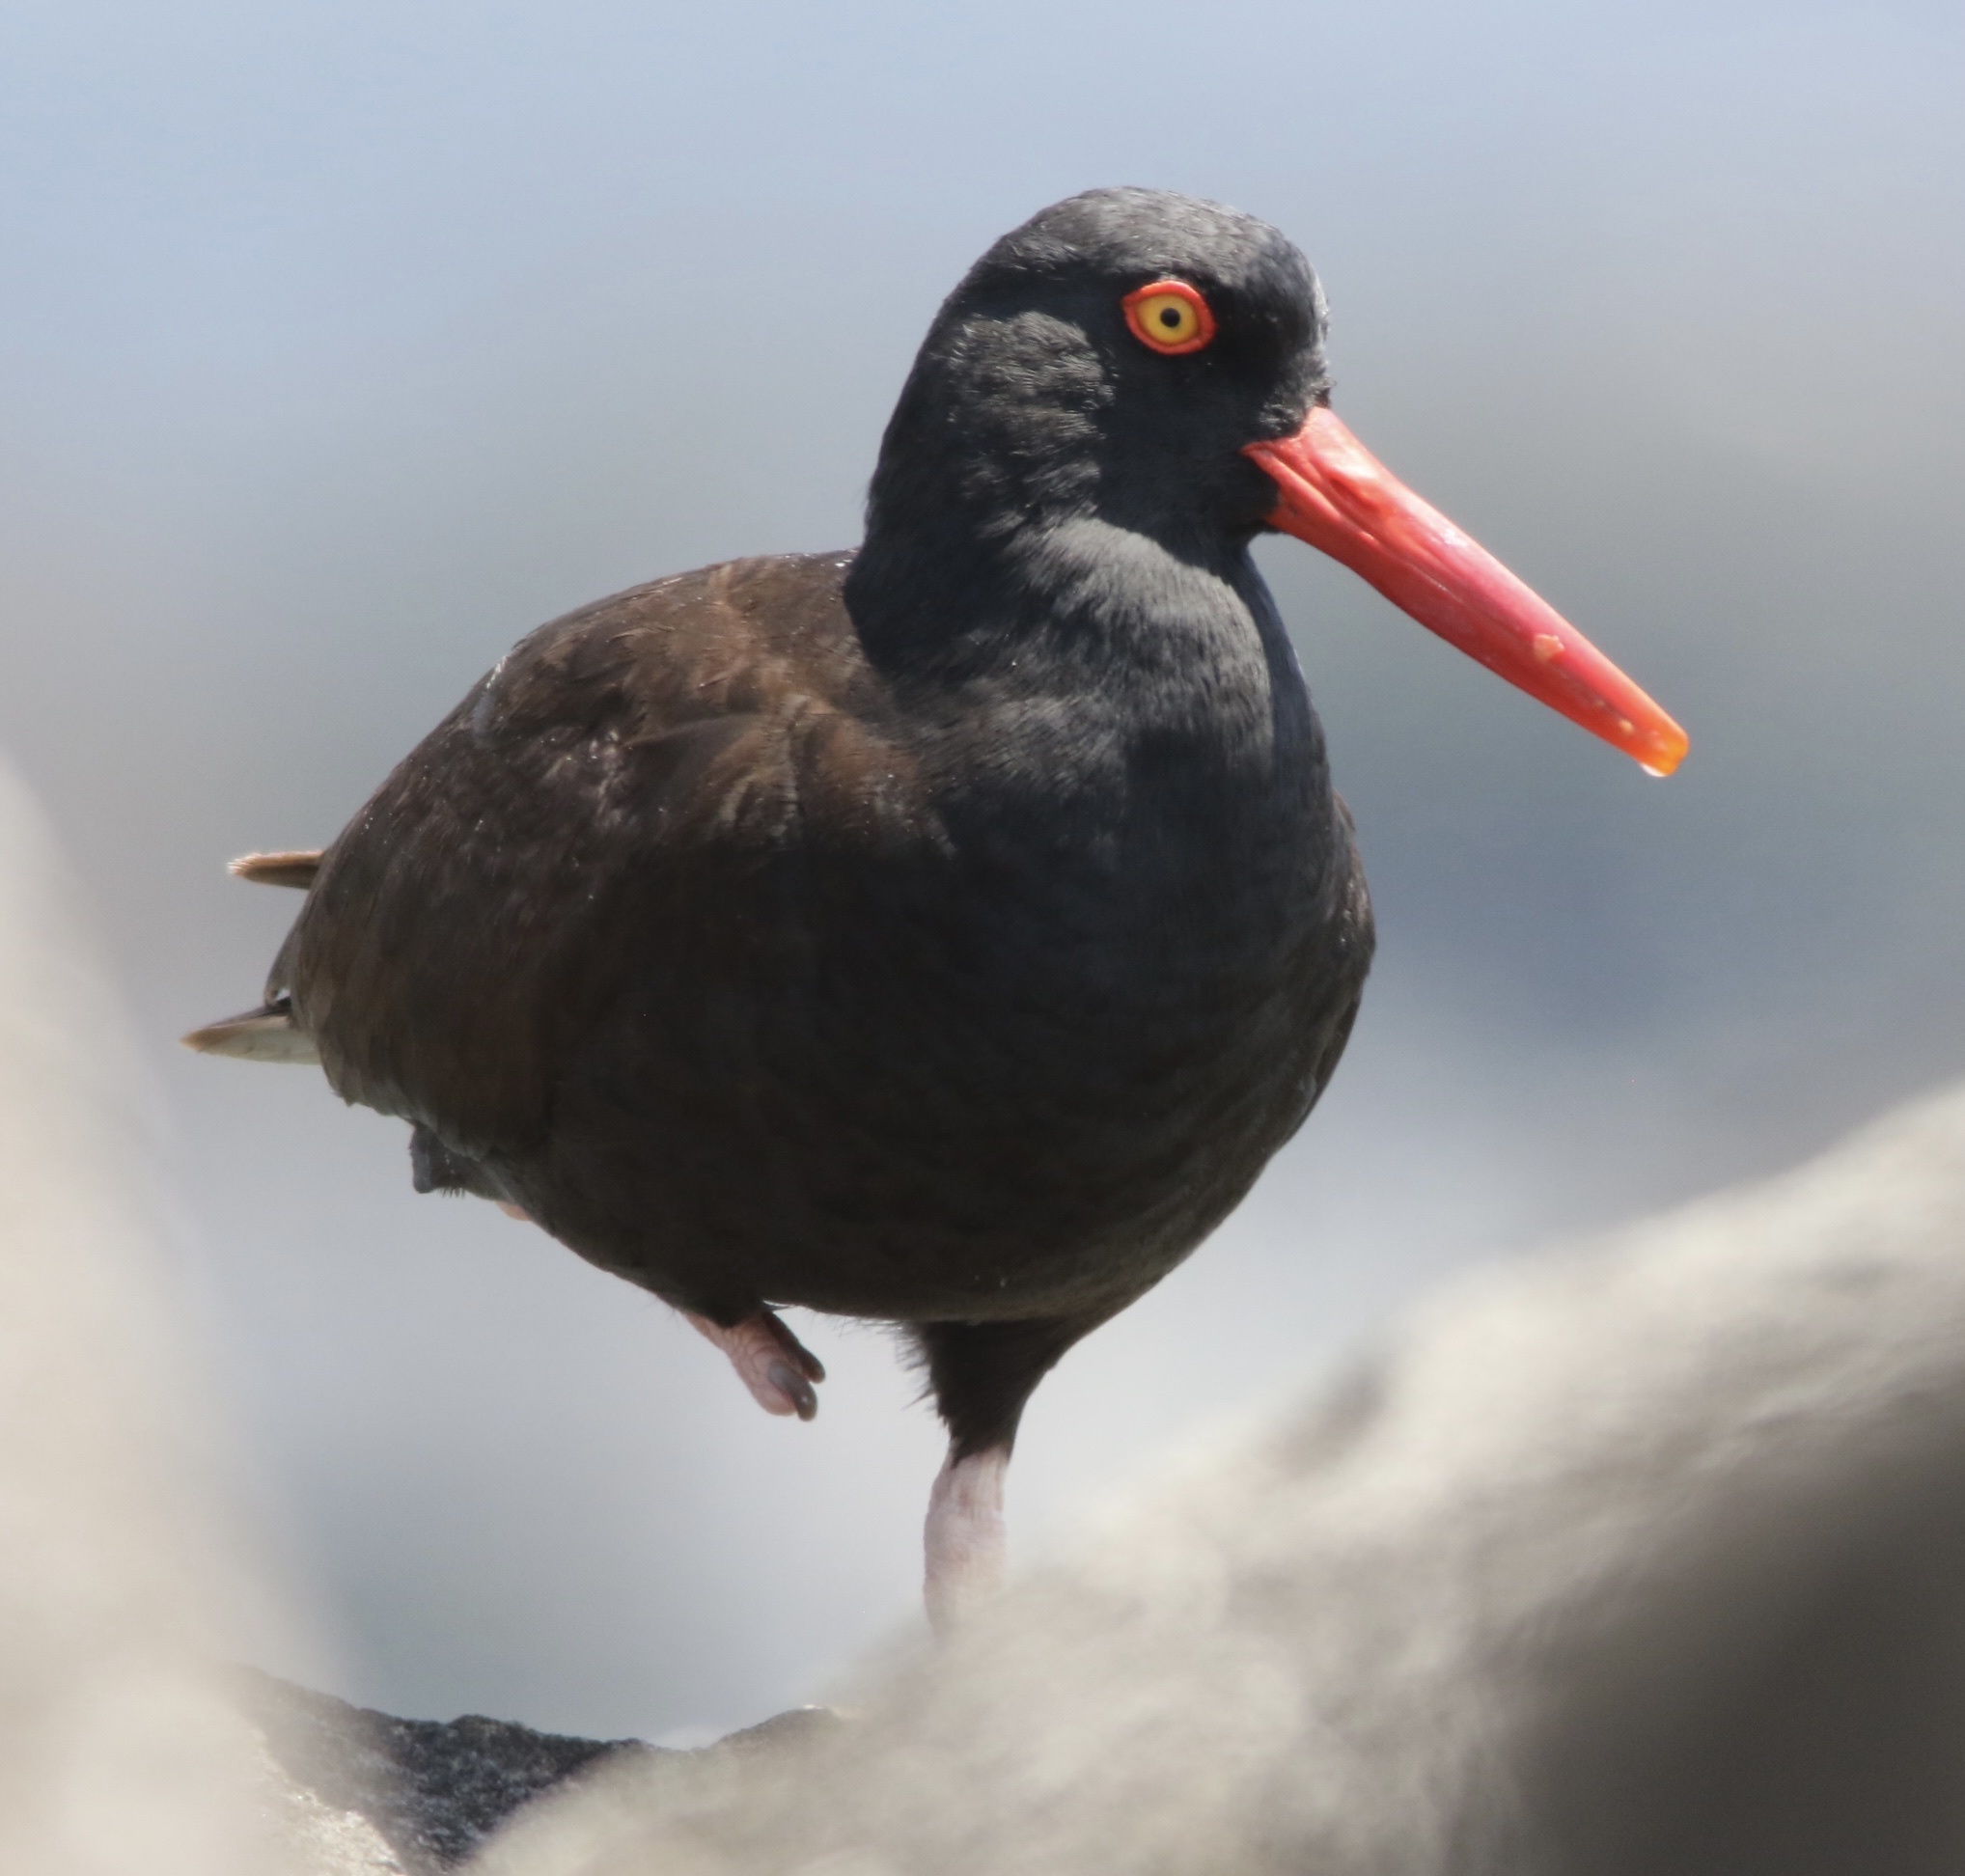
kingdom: Animalia
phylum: Chordata
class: Aves
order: Charadriiformes
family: Haematopodidae
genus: Haematopus
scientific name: Haematopus bachmani
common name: Black oystercatcher
